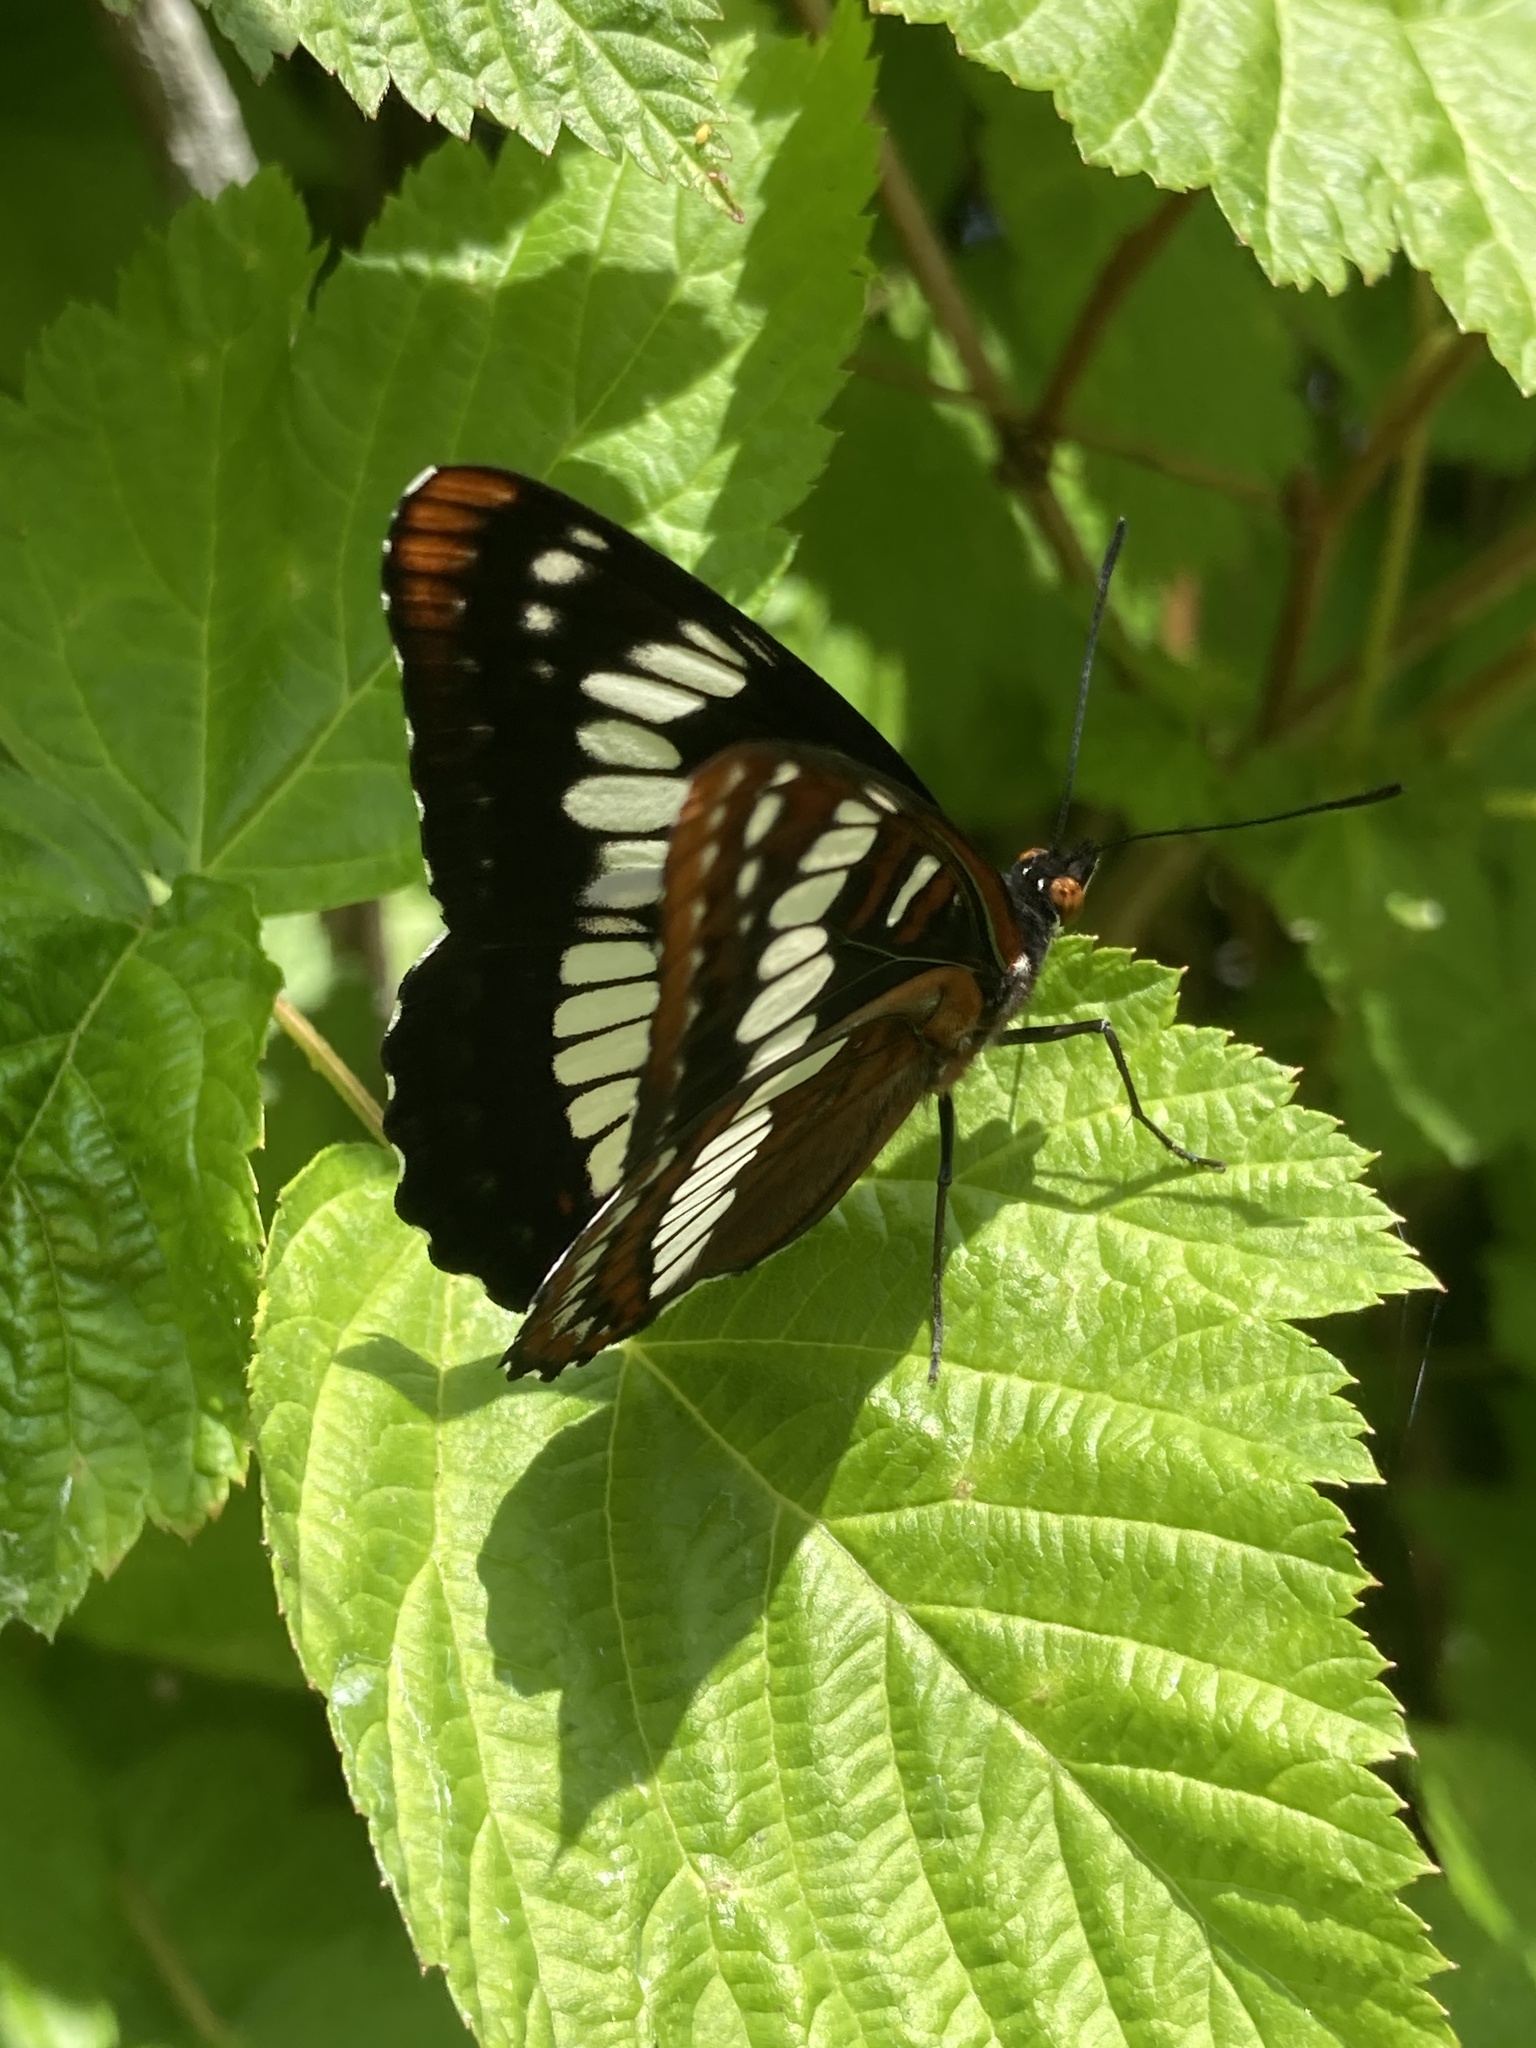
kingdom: Animalia
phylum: Arthropoda
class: Insecta
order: Lepidoptera
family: Nymphalidae
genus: Limenitis
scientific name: Limenitis lorquini
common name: Lorquin's admiral
